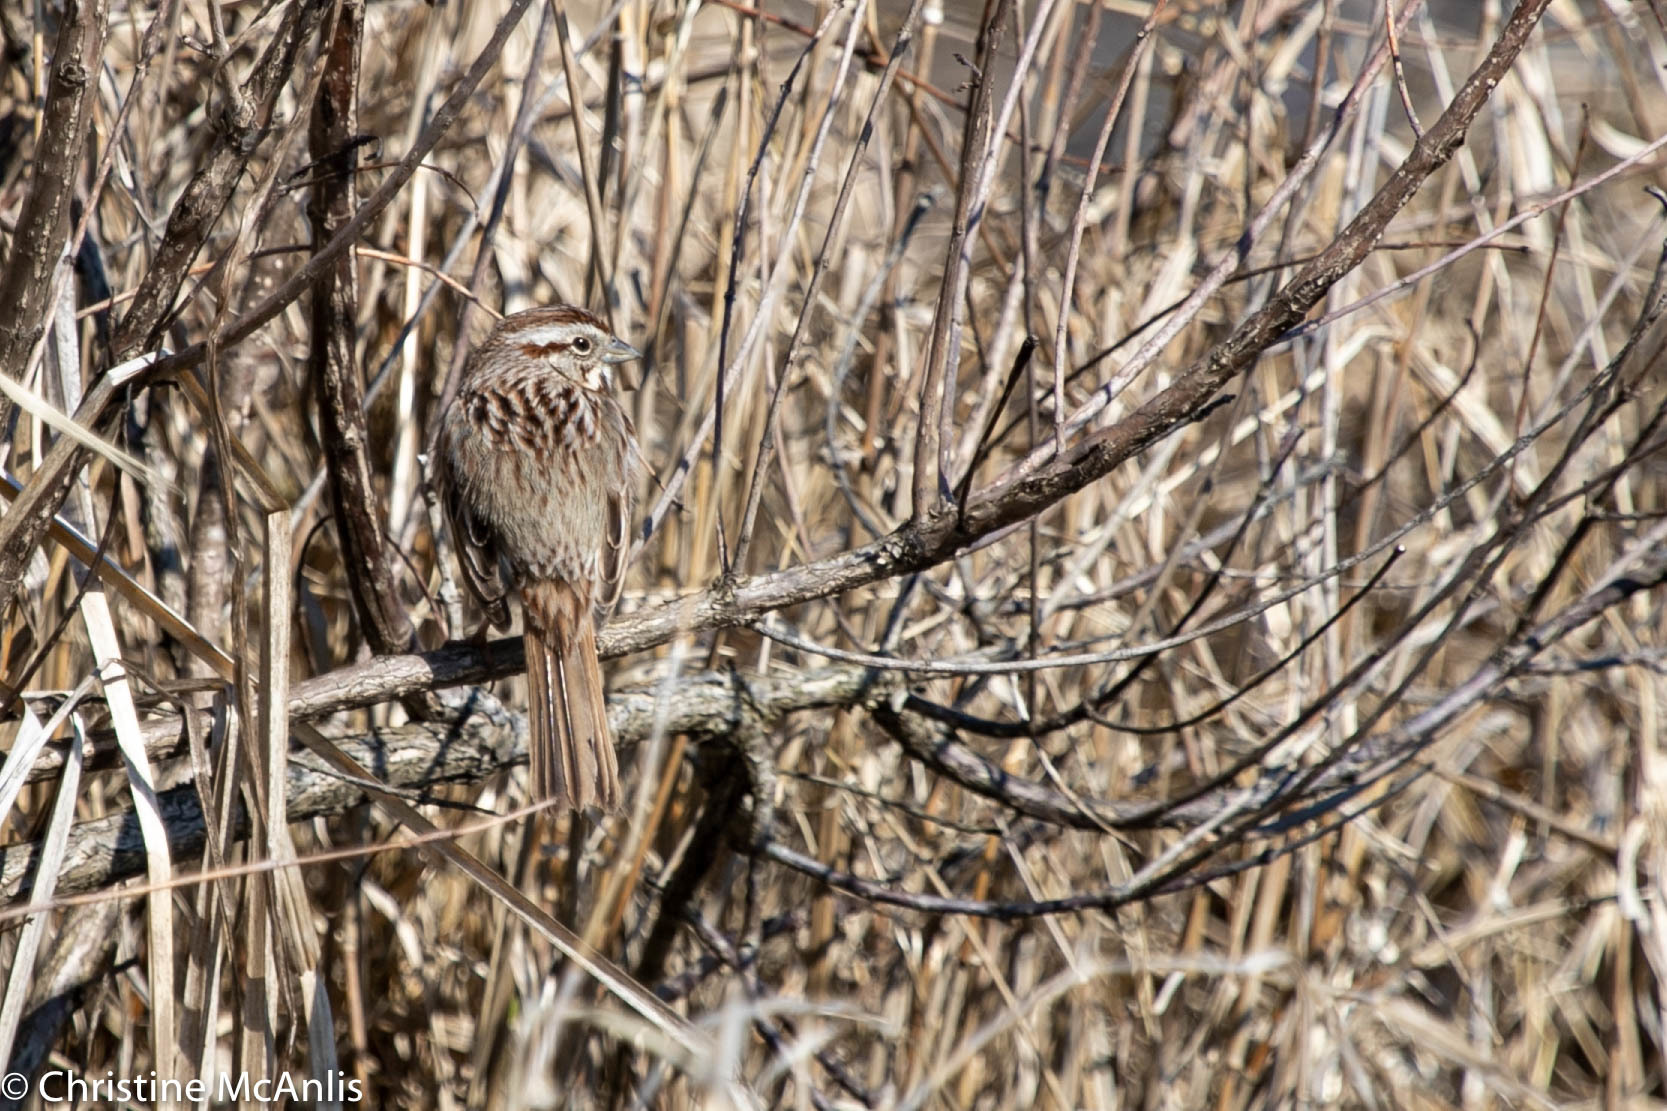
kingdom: Animalia
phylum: Chordata
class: Aves
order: Passeriformes
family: Passerellidae
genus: Melospiza
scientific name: Melospiza melodia
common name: Song sparrow
